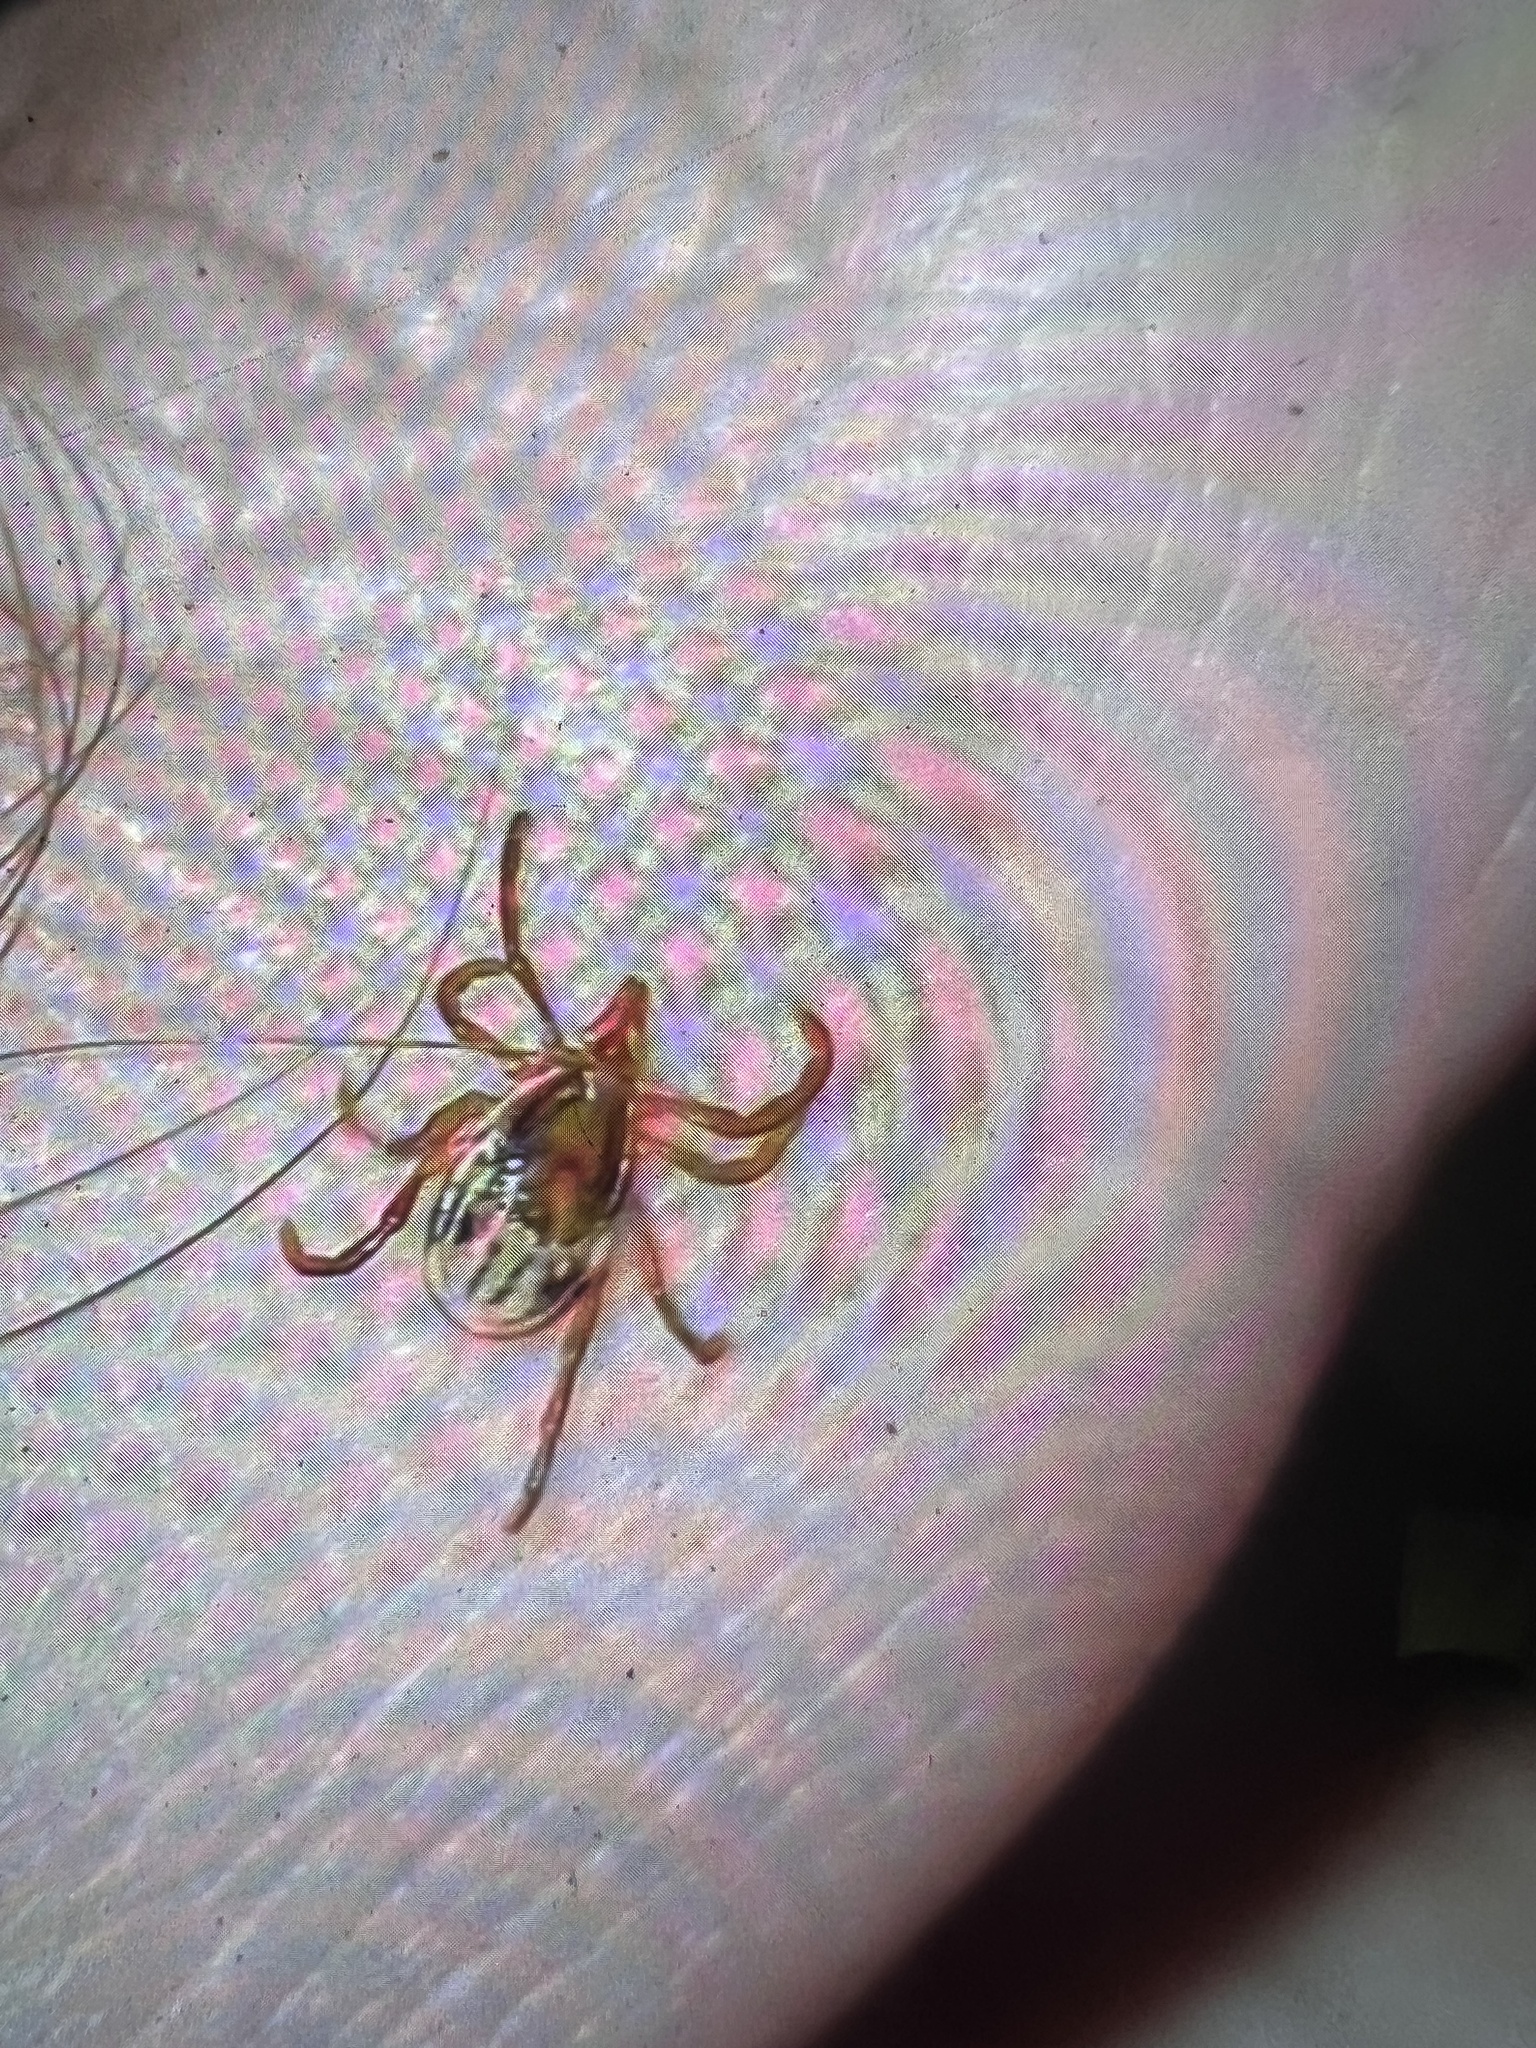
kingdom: Animalia
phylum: Arthropoda
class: Arachnida
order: Ixodida
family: Ixodidae
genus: Ixodes
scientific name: Ixodes holocyclus
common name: Australian paralysis tick
